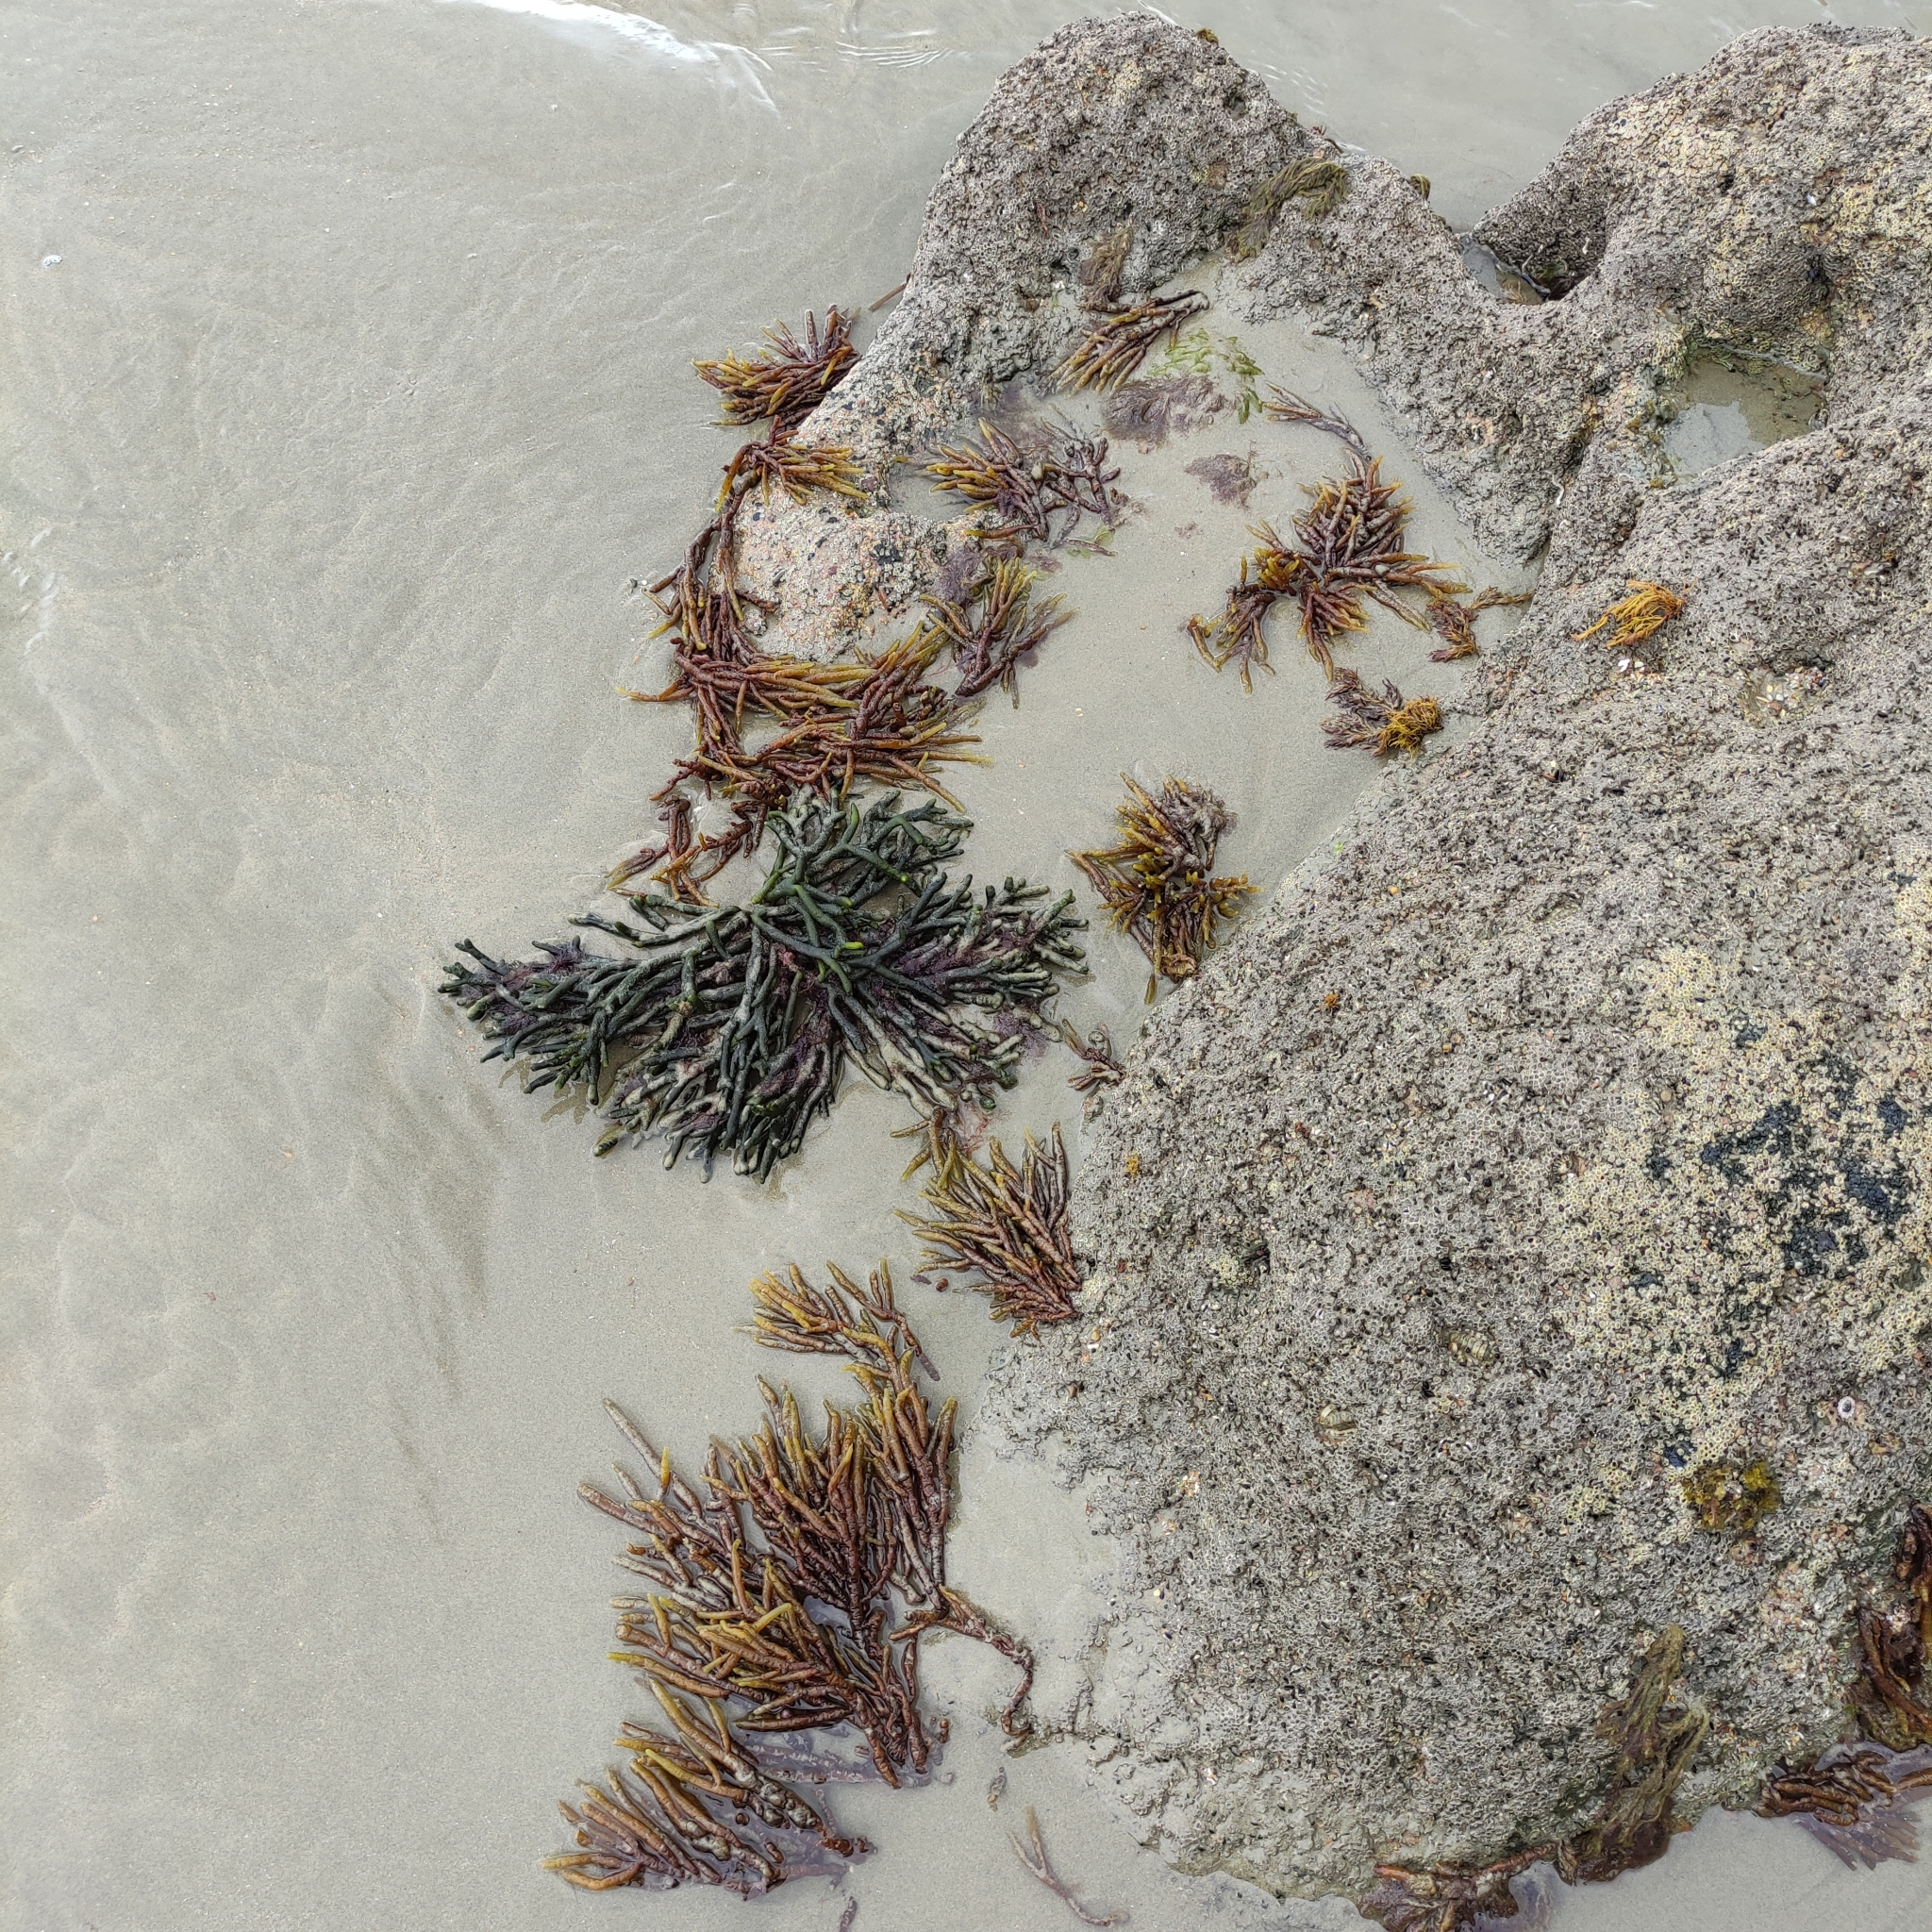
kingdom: Chromista
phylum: Ochrophyta
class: Phaeophyceae
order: Scytothamnales
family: Splachnidiaceae
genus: Splachnidium
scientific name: Splachnidium rugosum
